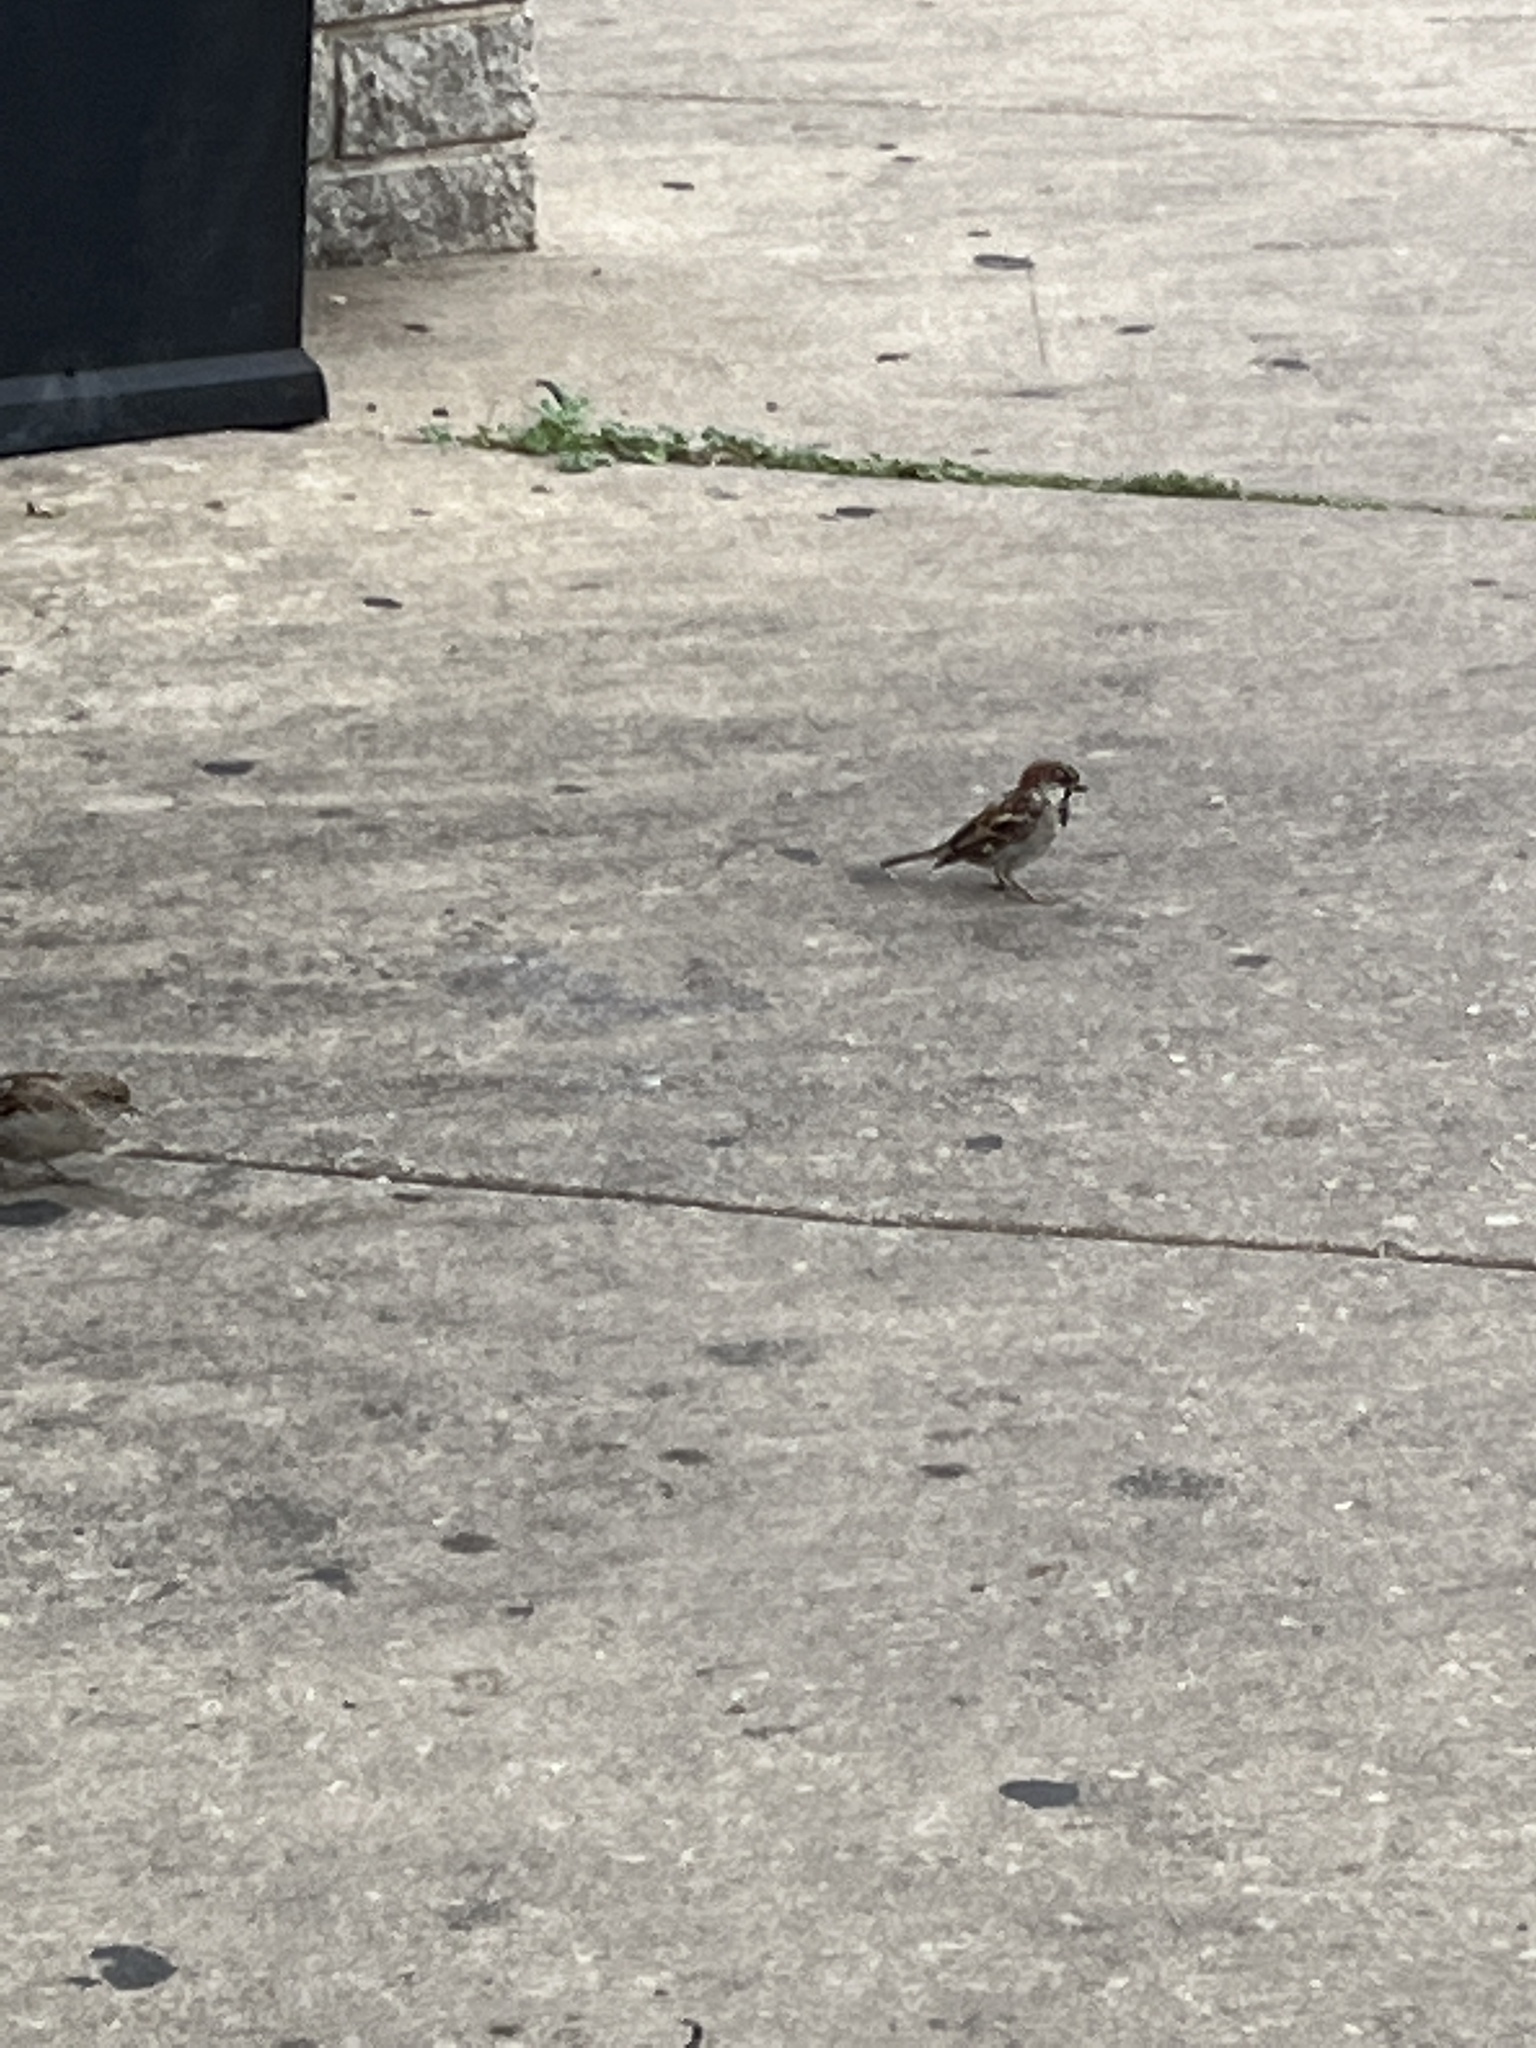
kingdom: Animalia
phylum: Chordata
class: Aves
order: Passeriformes
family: Passeridae
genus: Passer
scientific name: Passer domesticus
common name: House sparrow
